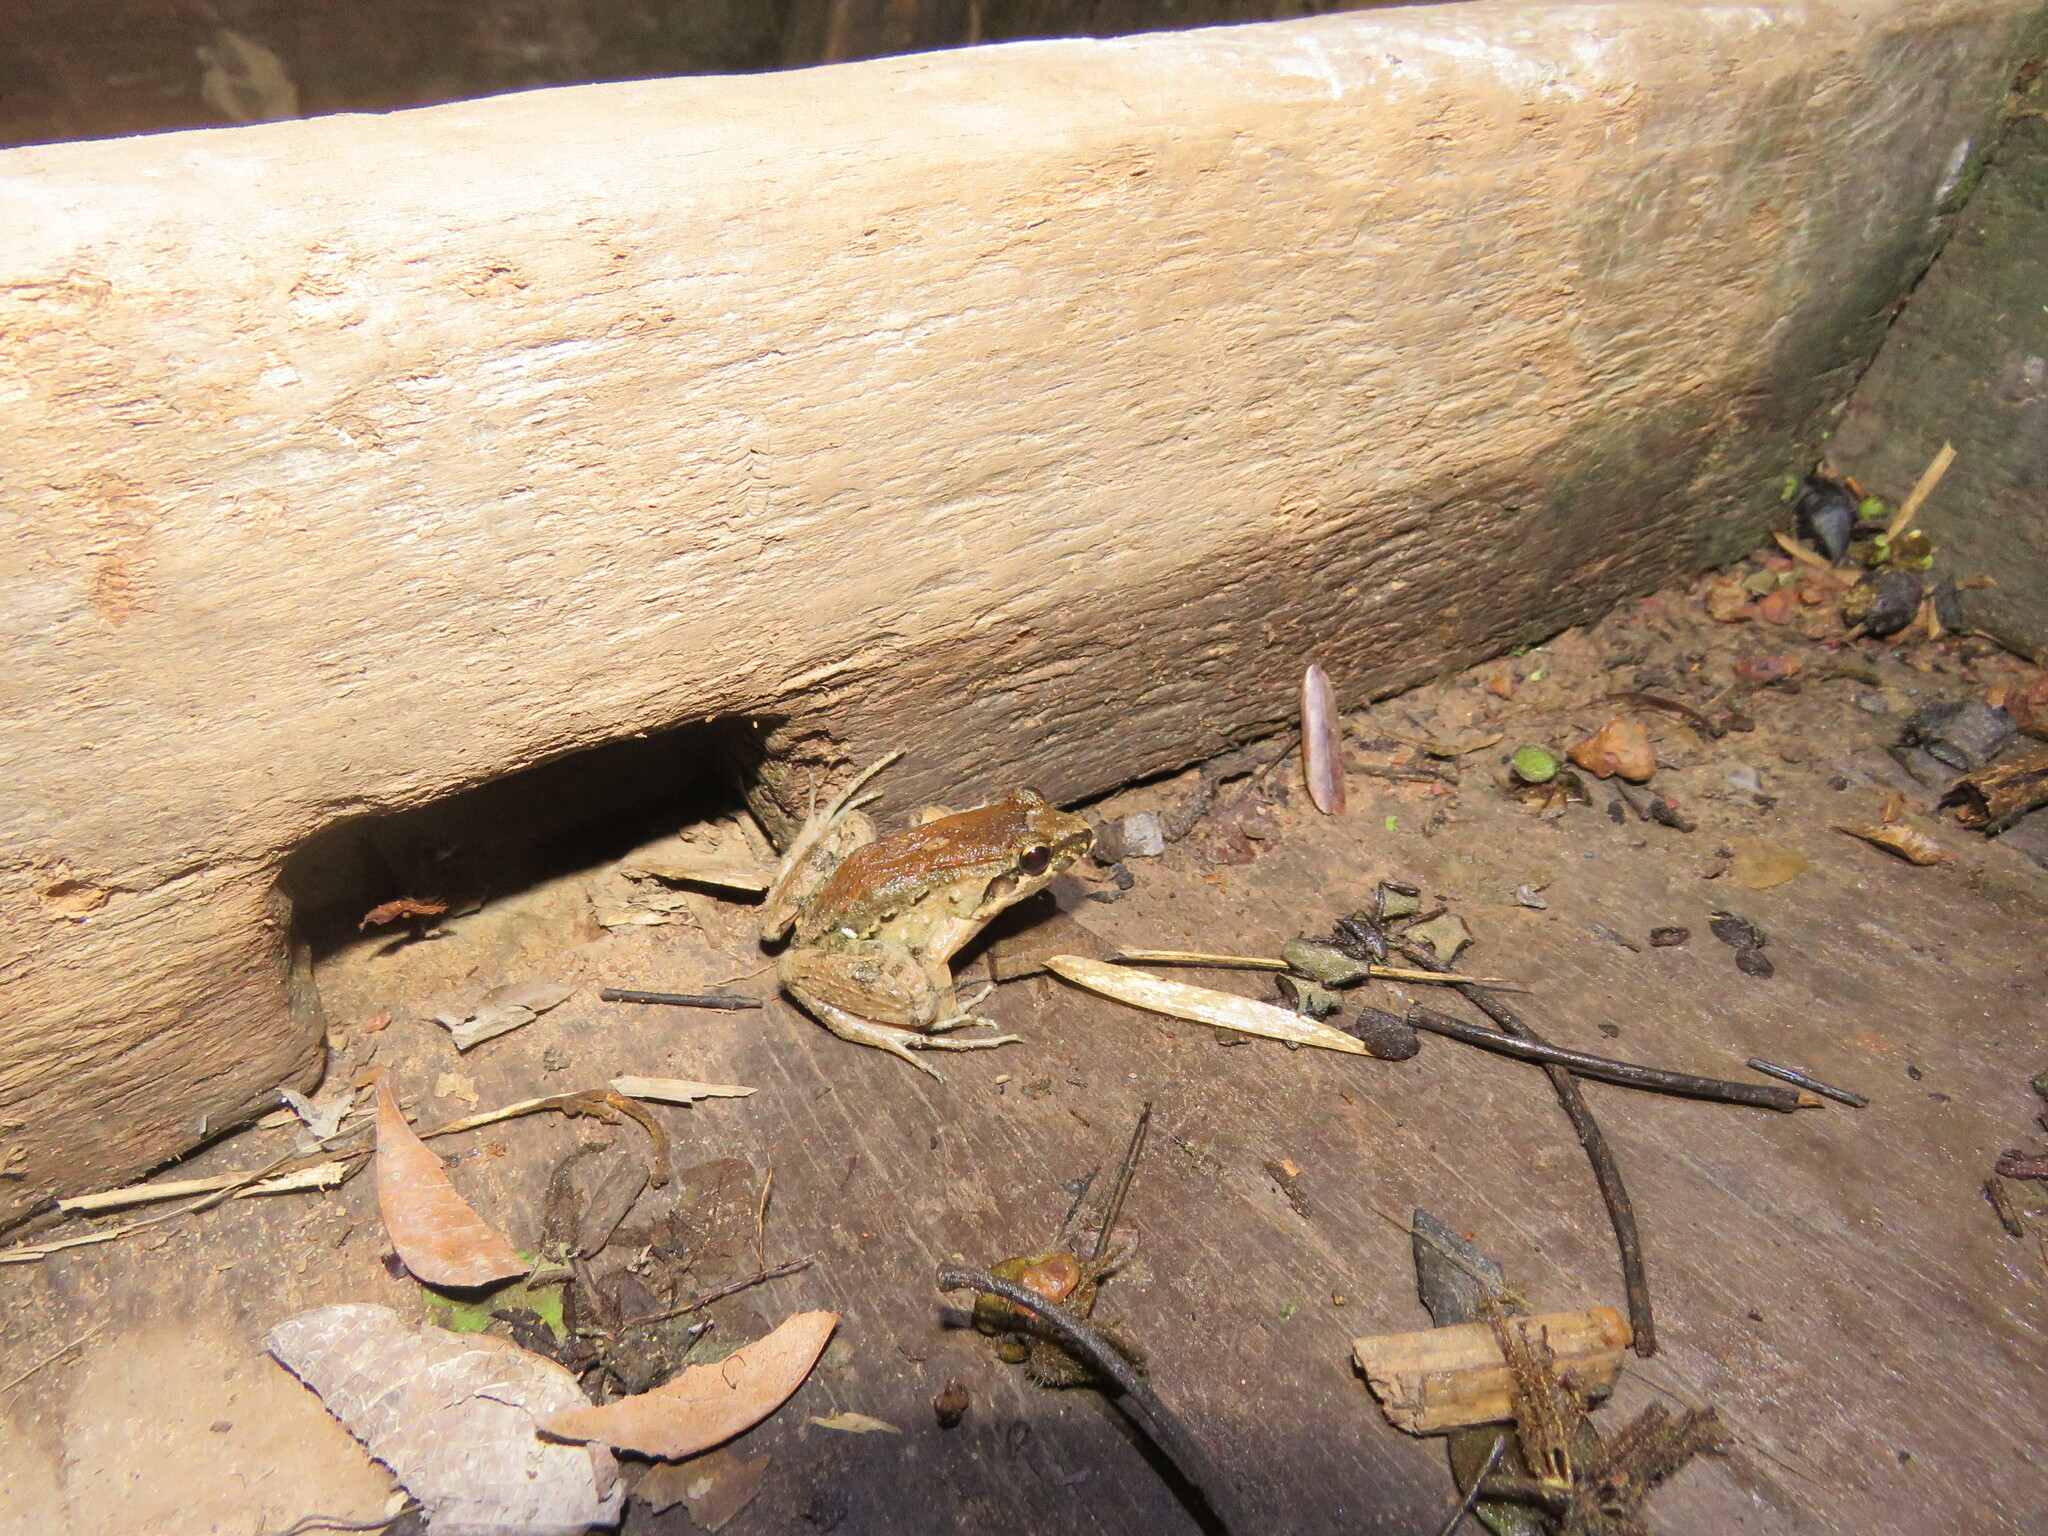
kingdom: Animalia
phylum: Chordata
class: Amphibia
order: Anura
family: Leptodactylidae
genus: Leptodactylus
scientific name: Leptodactylus petersii
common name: Peters' thin-toed frog
